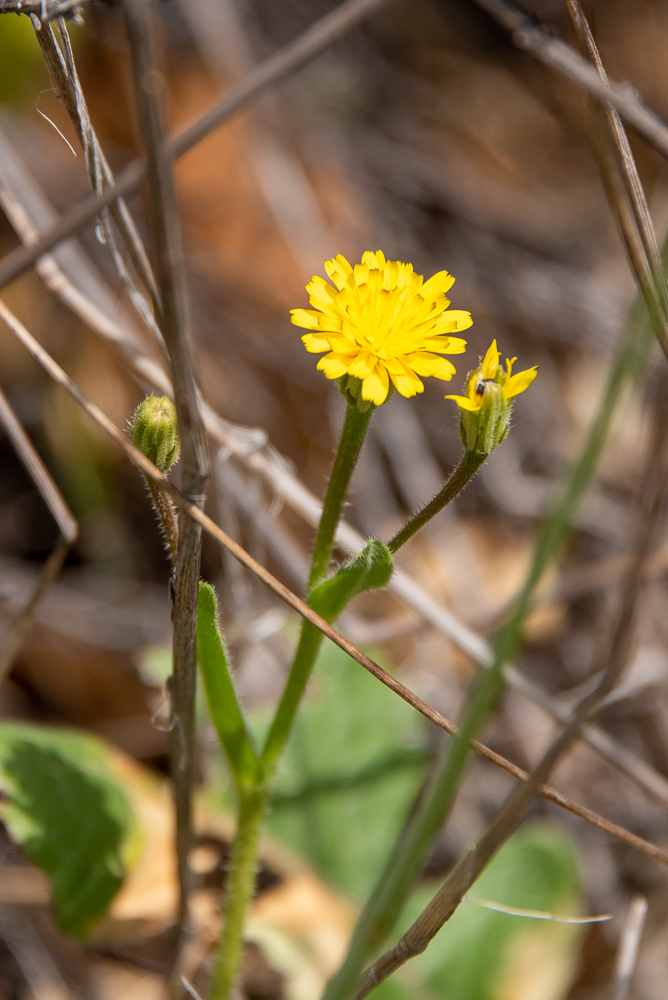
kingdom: Plantae
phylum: Tracheophyta
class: Magnoliopsida
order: Asterales
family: Asteraceae
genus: Hedypnois
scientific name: Hedypnois rhagadioloides
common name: Cretan weed
